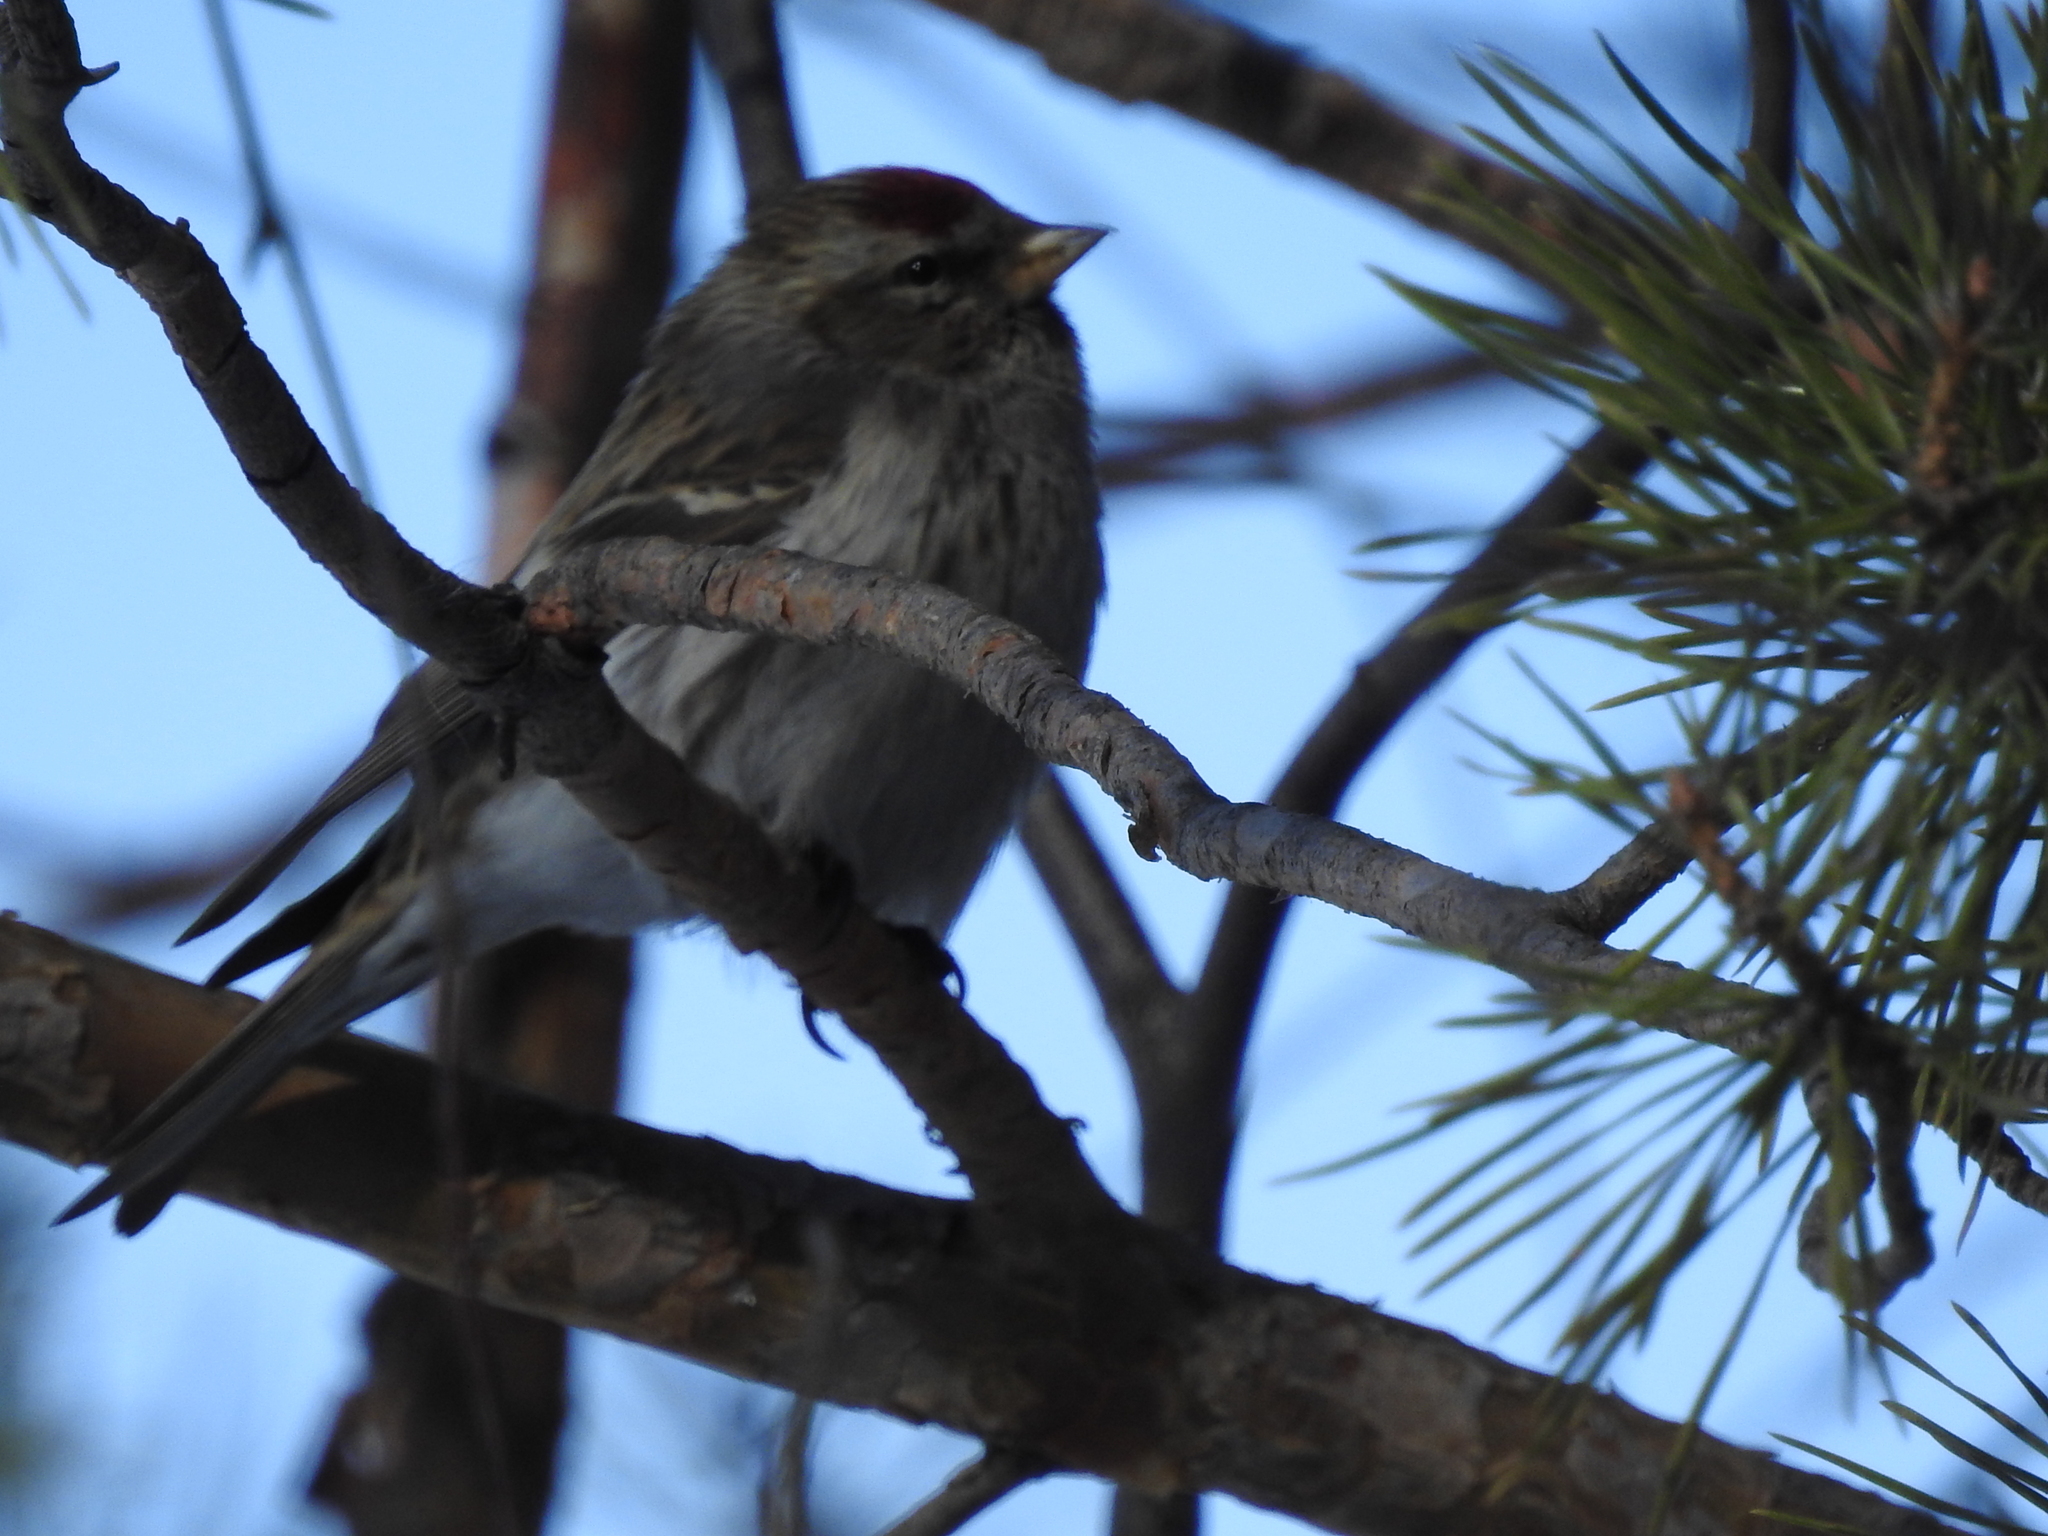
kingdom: Animalia
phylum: Chordata
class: Aves
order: Passeriformes
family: Fringillidae
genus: Acanthis
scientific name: Acanthis flammea
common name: Common redpoll
